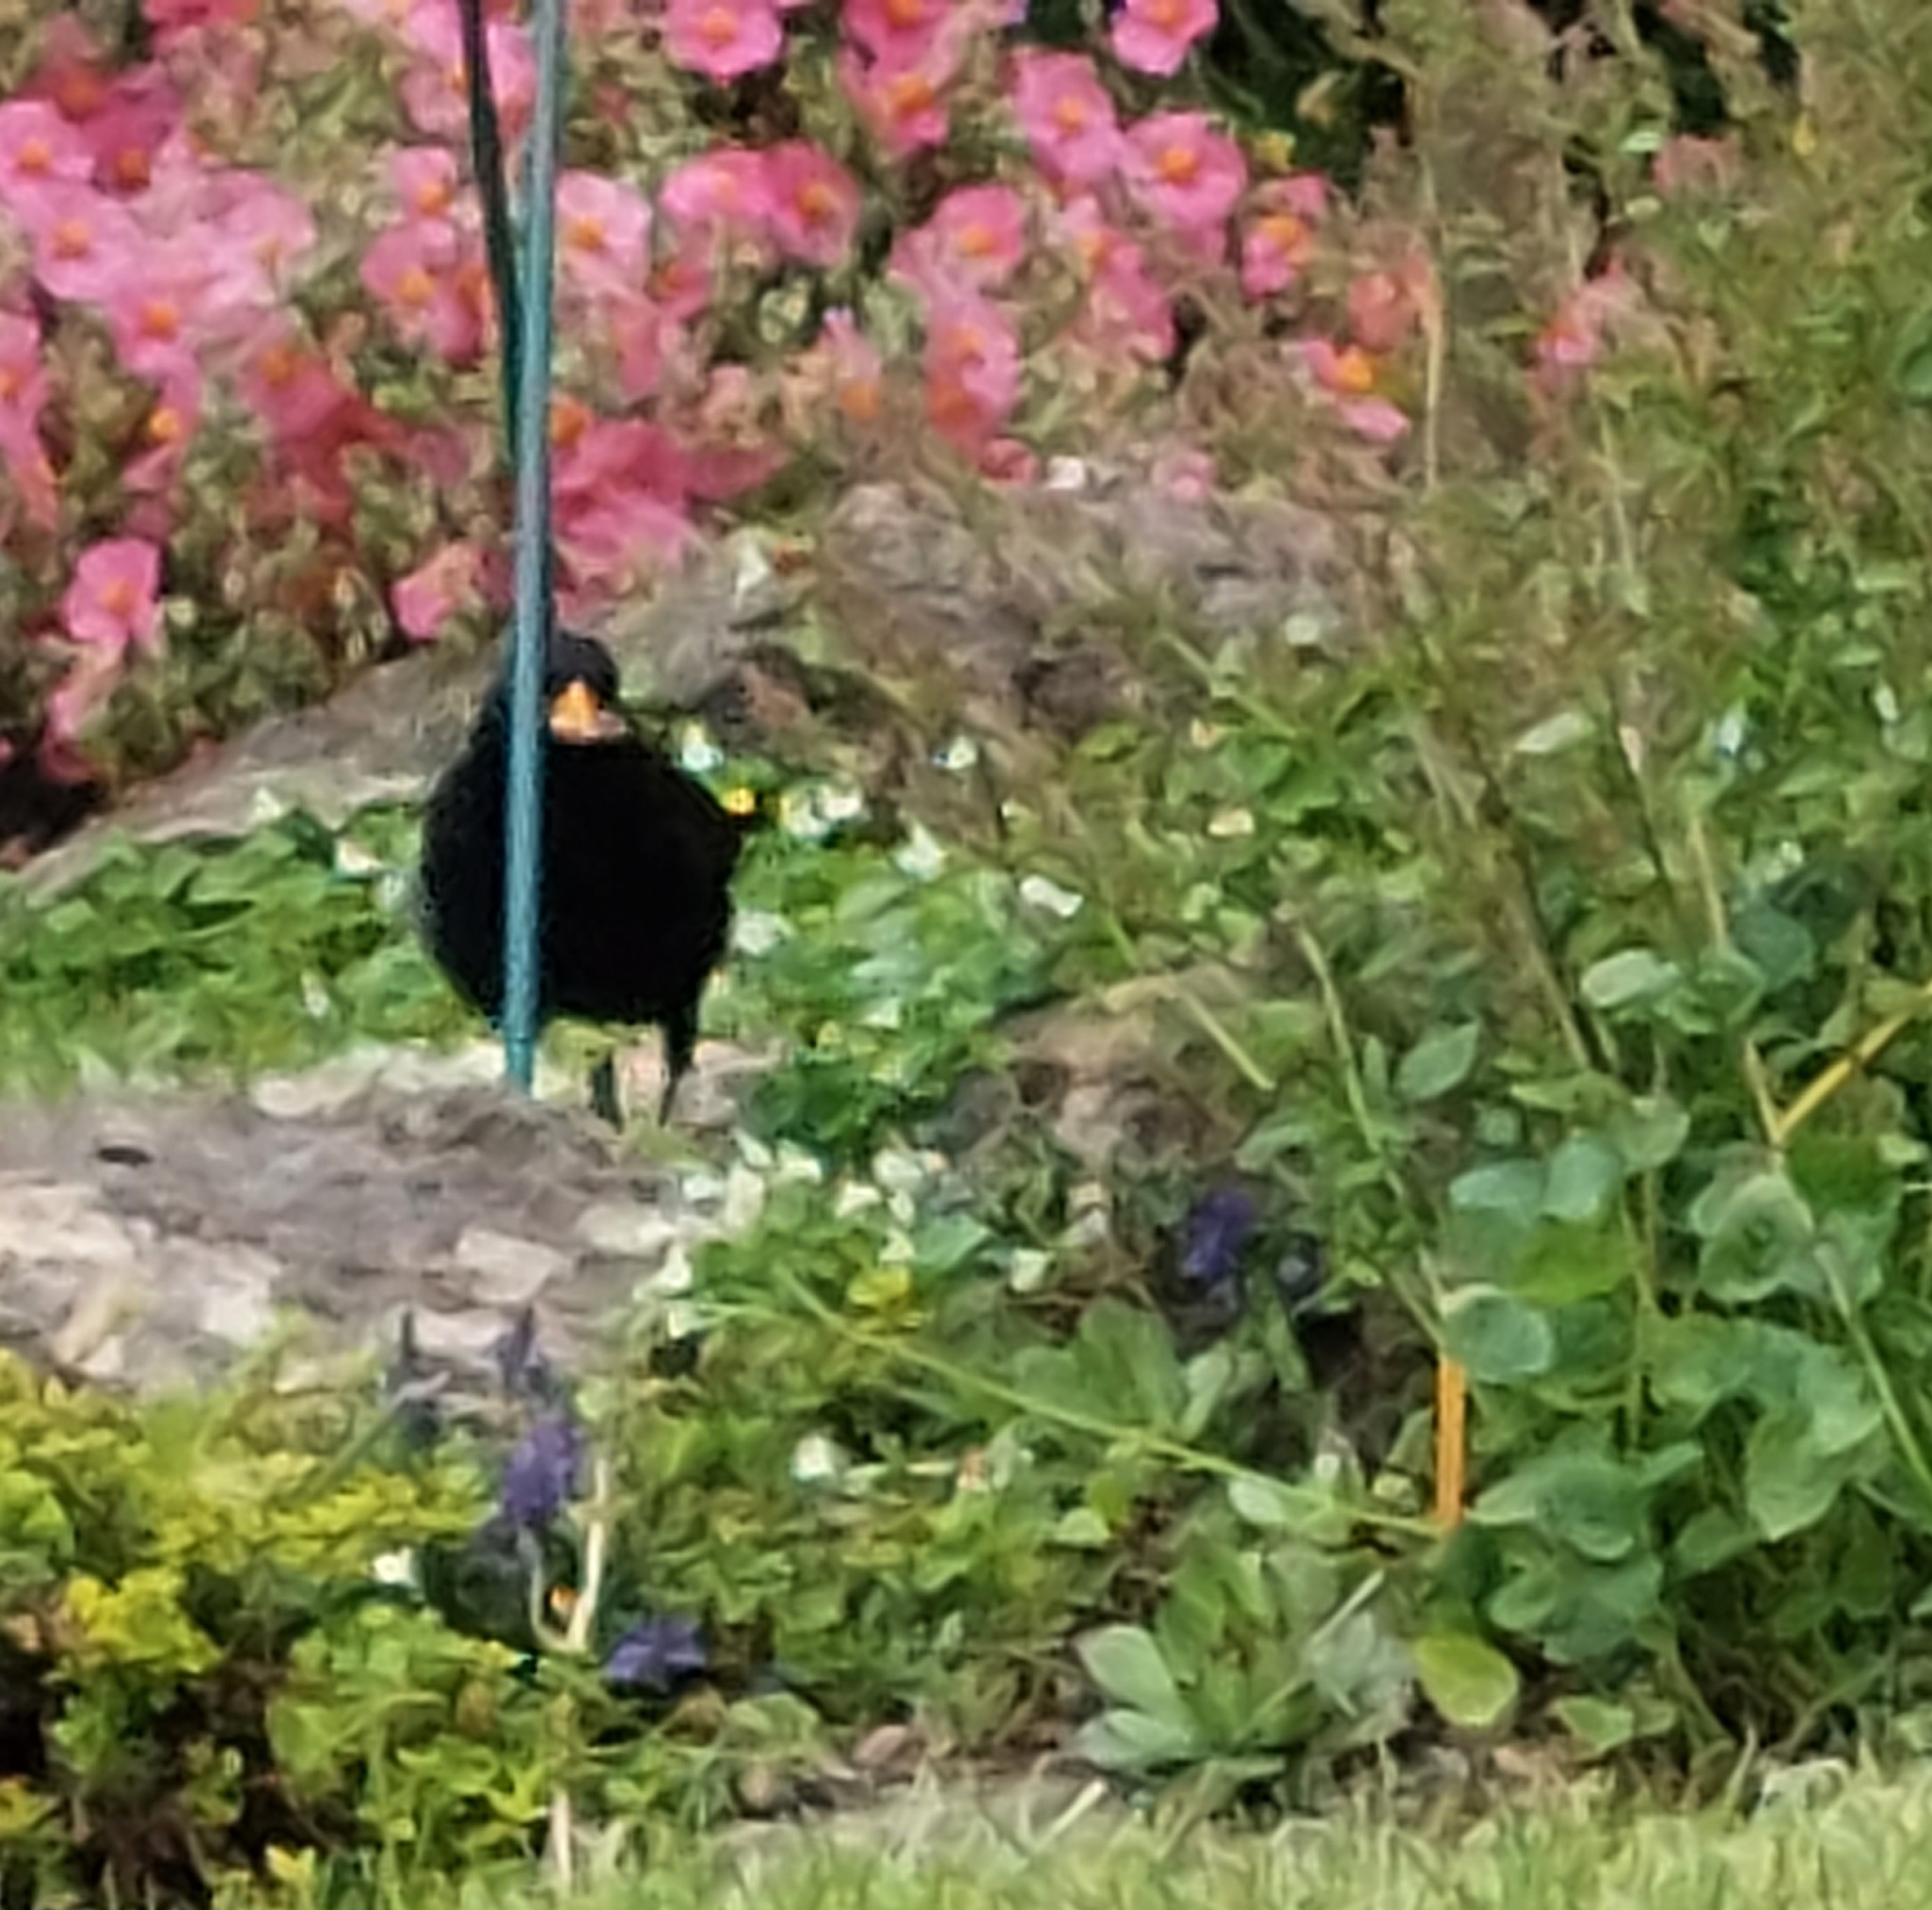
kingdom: Animalia
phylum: Chordata
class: Aves
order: Passeriformes
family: Turdidae
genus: Turdus
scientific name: Turdus merula
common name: Common blackbird
